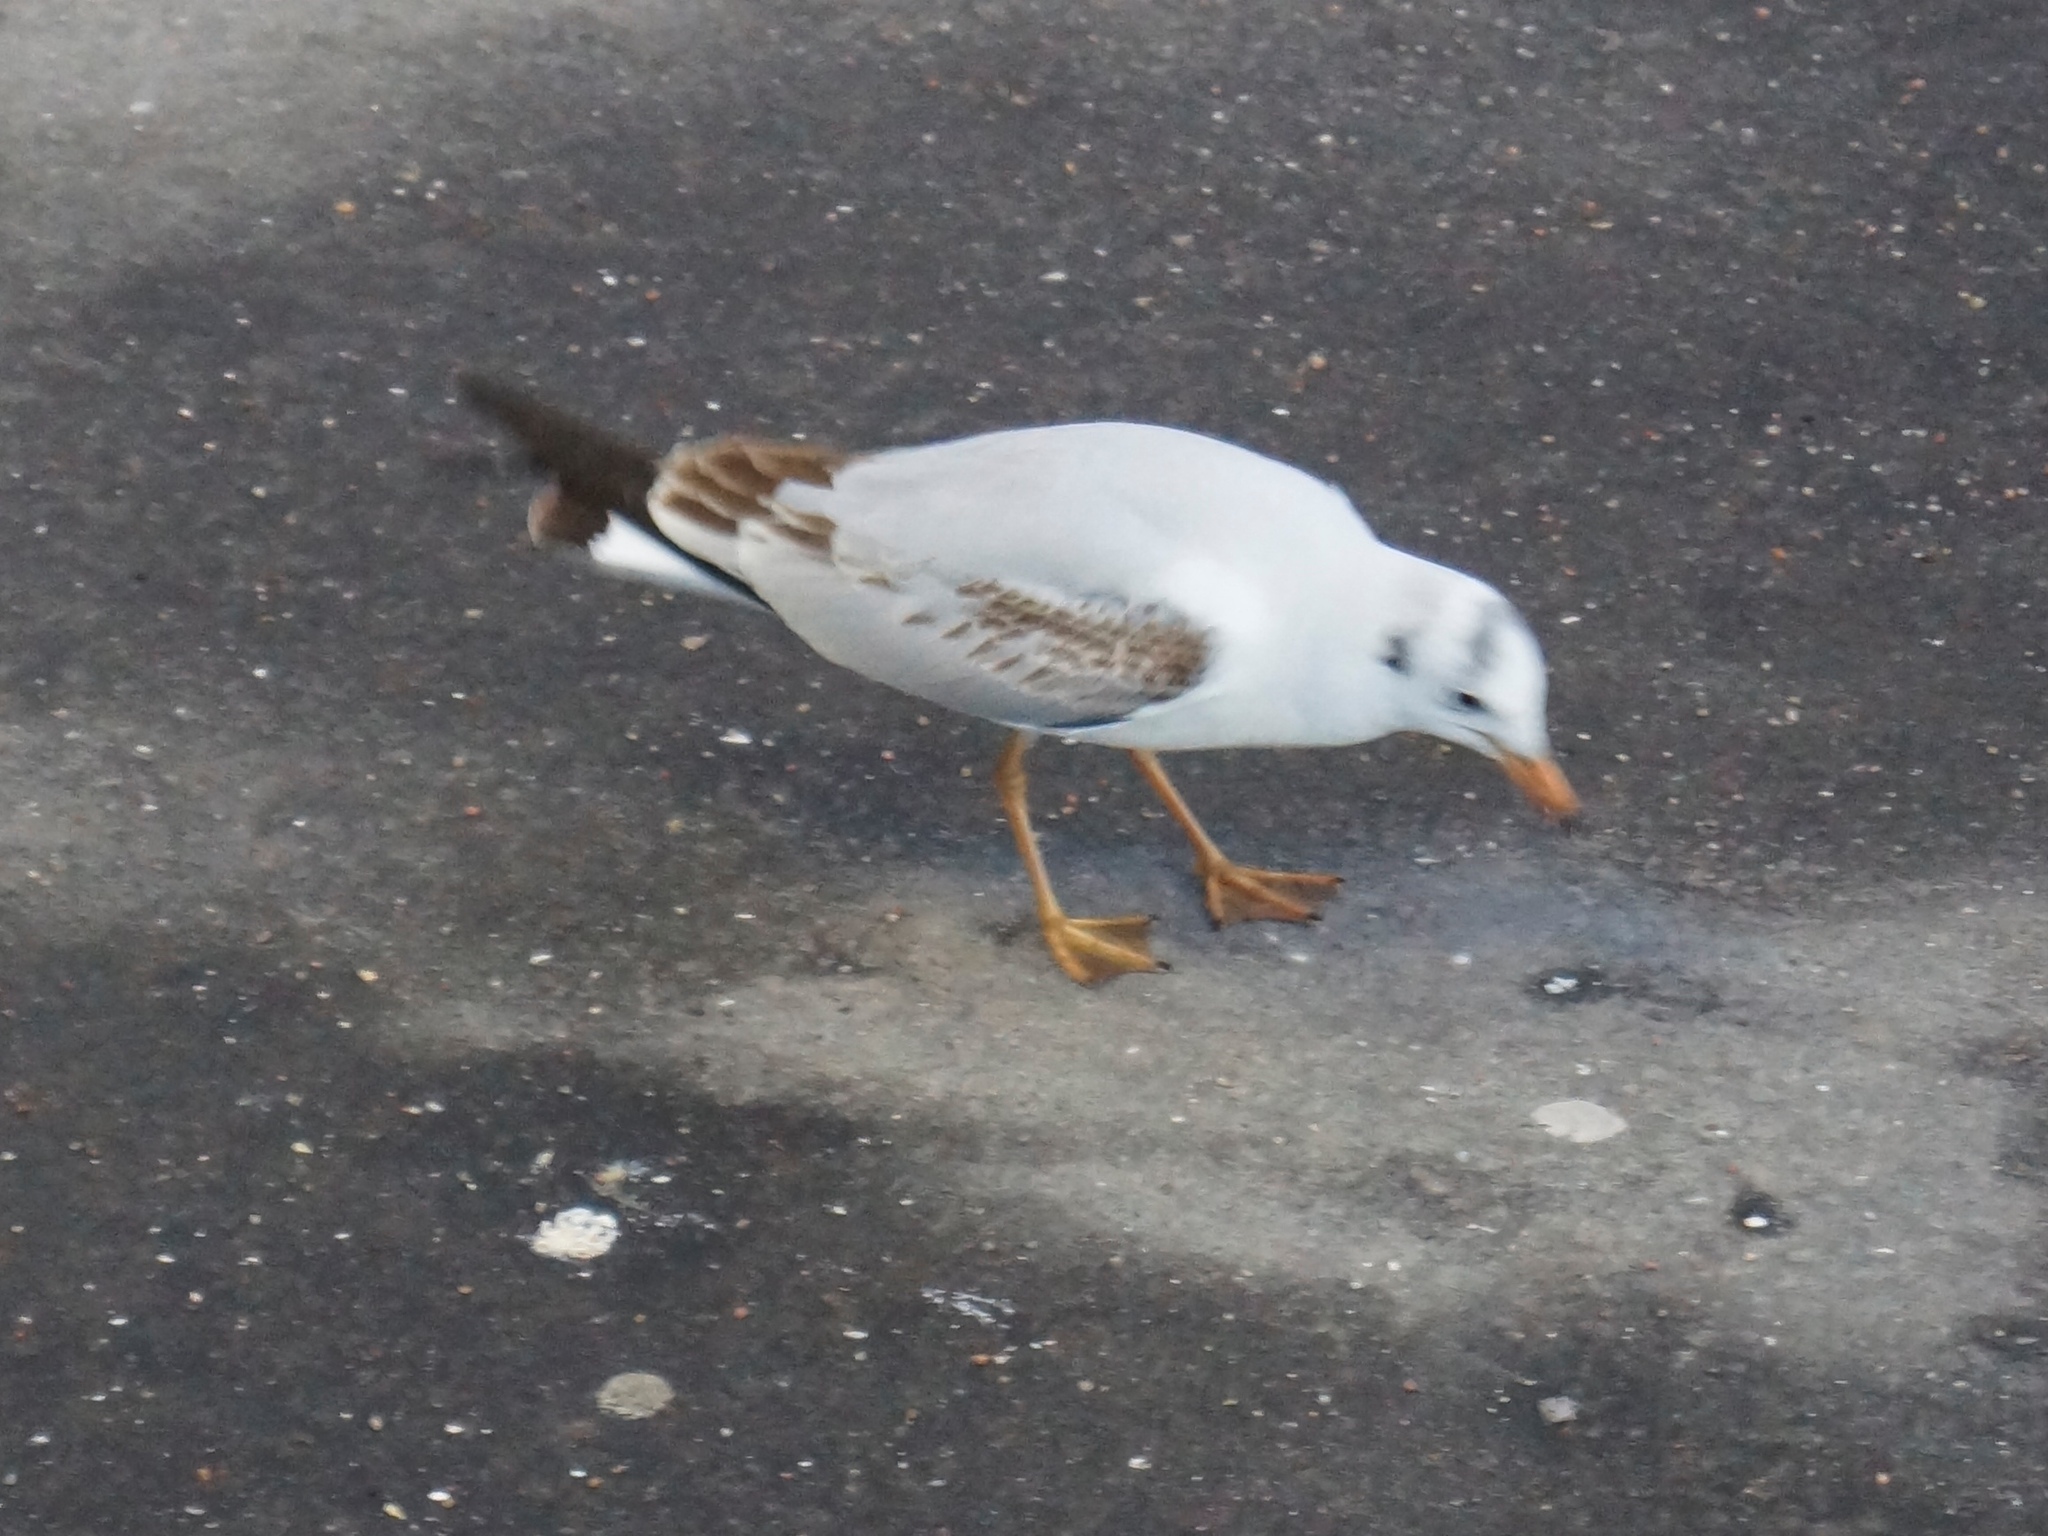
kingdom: Animalia
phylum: Chordata
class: Aves
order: Charadriiformes
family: Laridae
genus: Chroicocephalus
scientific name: Chroicocephalus ridibundus
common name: Black-headed gull
